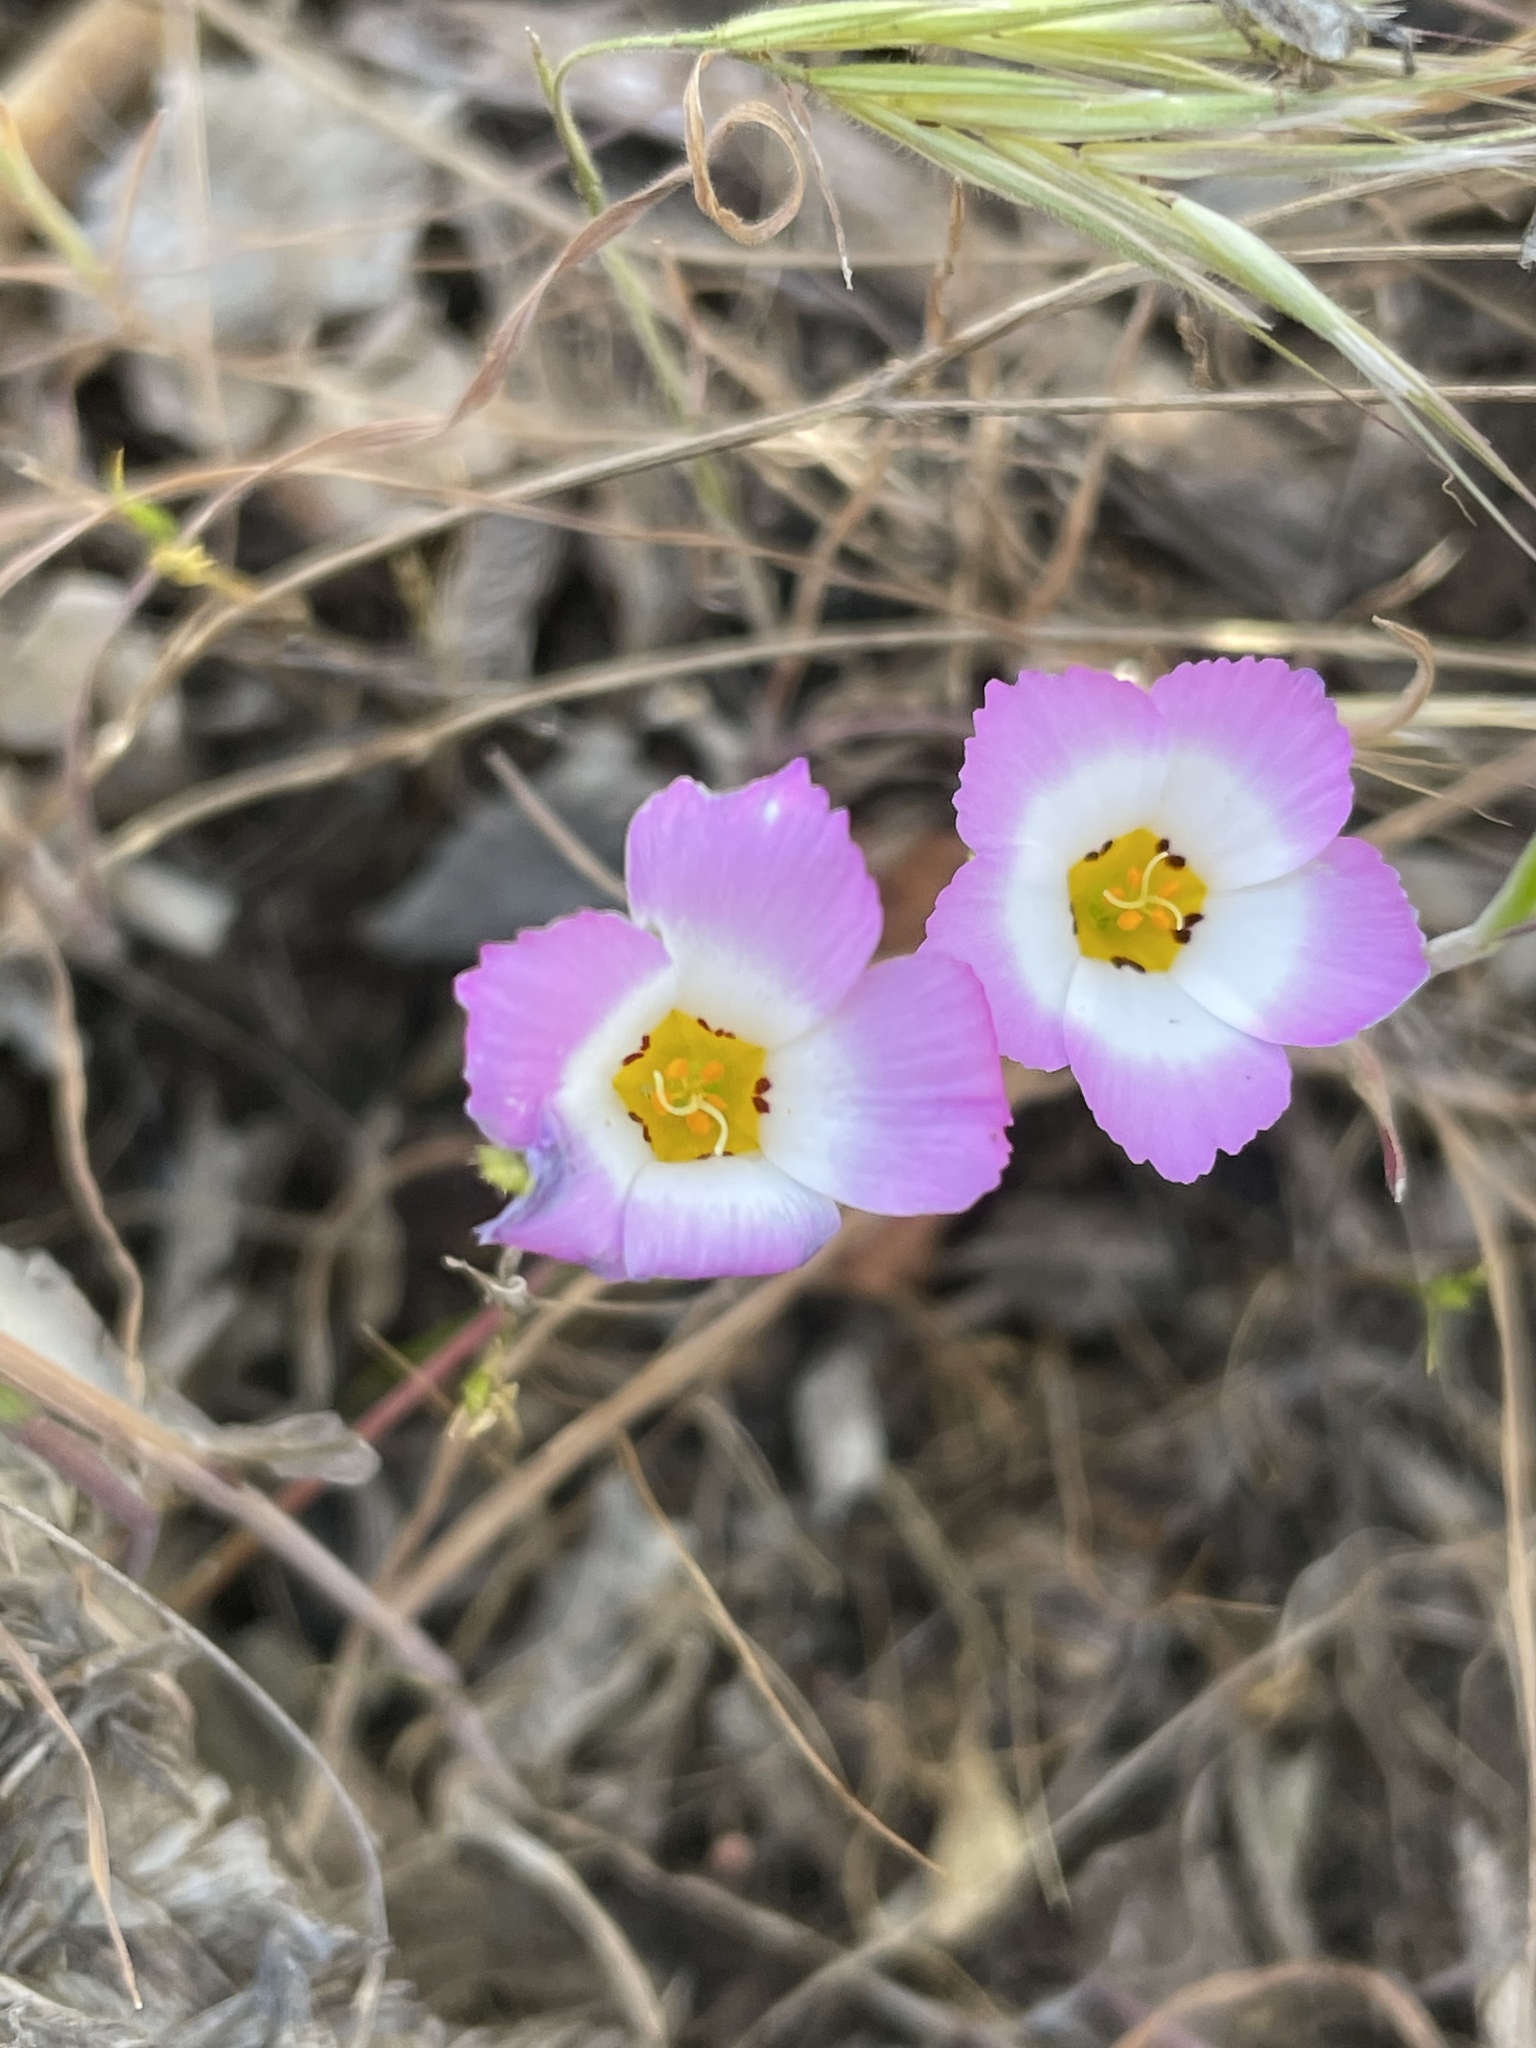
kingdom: Plantae
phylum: Tracheophyta
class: Magnoliopsida
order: Ericales
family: Polemoniaceae
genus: Linanthus
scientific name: Linanthus dianthiflorus
